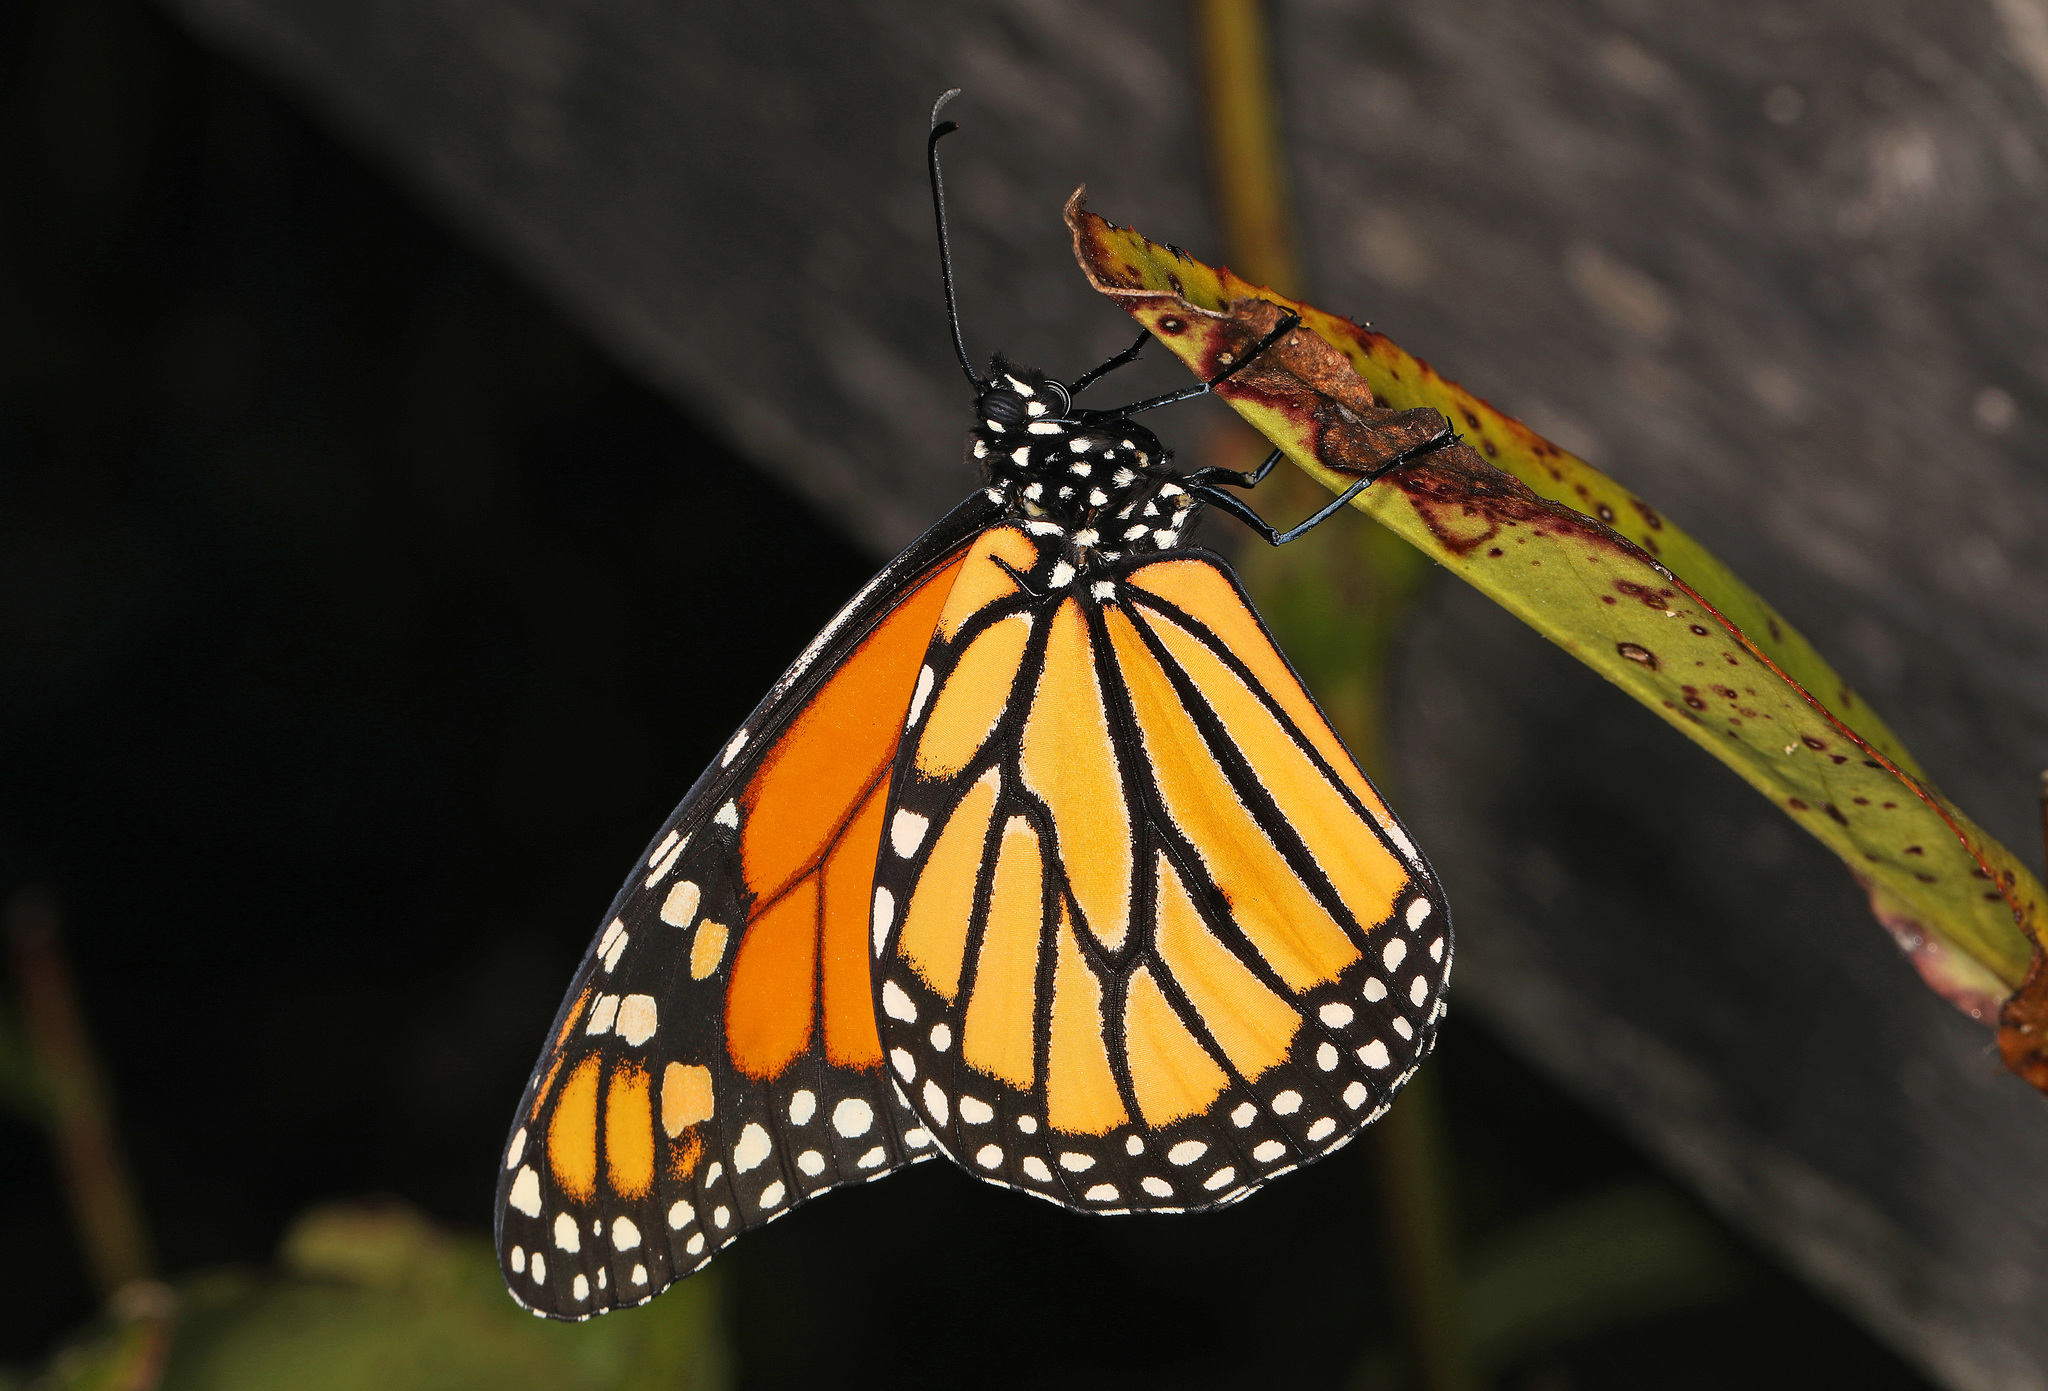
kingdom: Animalia
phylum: Arthropoda
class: Insecta
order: Lepidoptera
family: Nymphalidae
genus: Danaus
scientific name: Danaus plexippus
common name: Monarch
